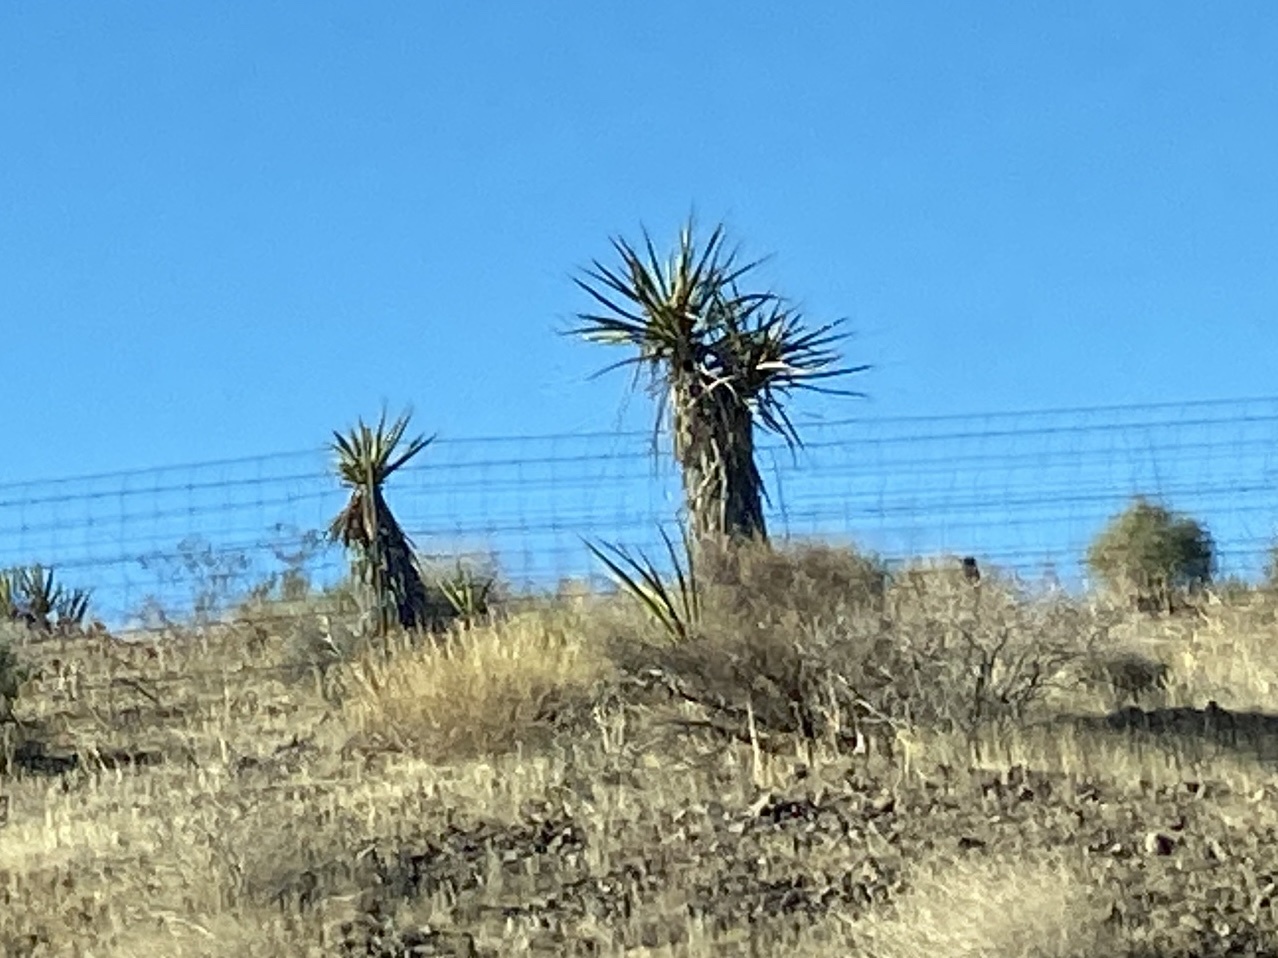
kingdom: Plantae
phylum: Tracheophyta
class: Liliopsida
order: Asparagales
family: Asparagaceae
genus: Yucca
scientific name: Yucca schidigera
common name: Mojave yucca
